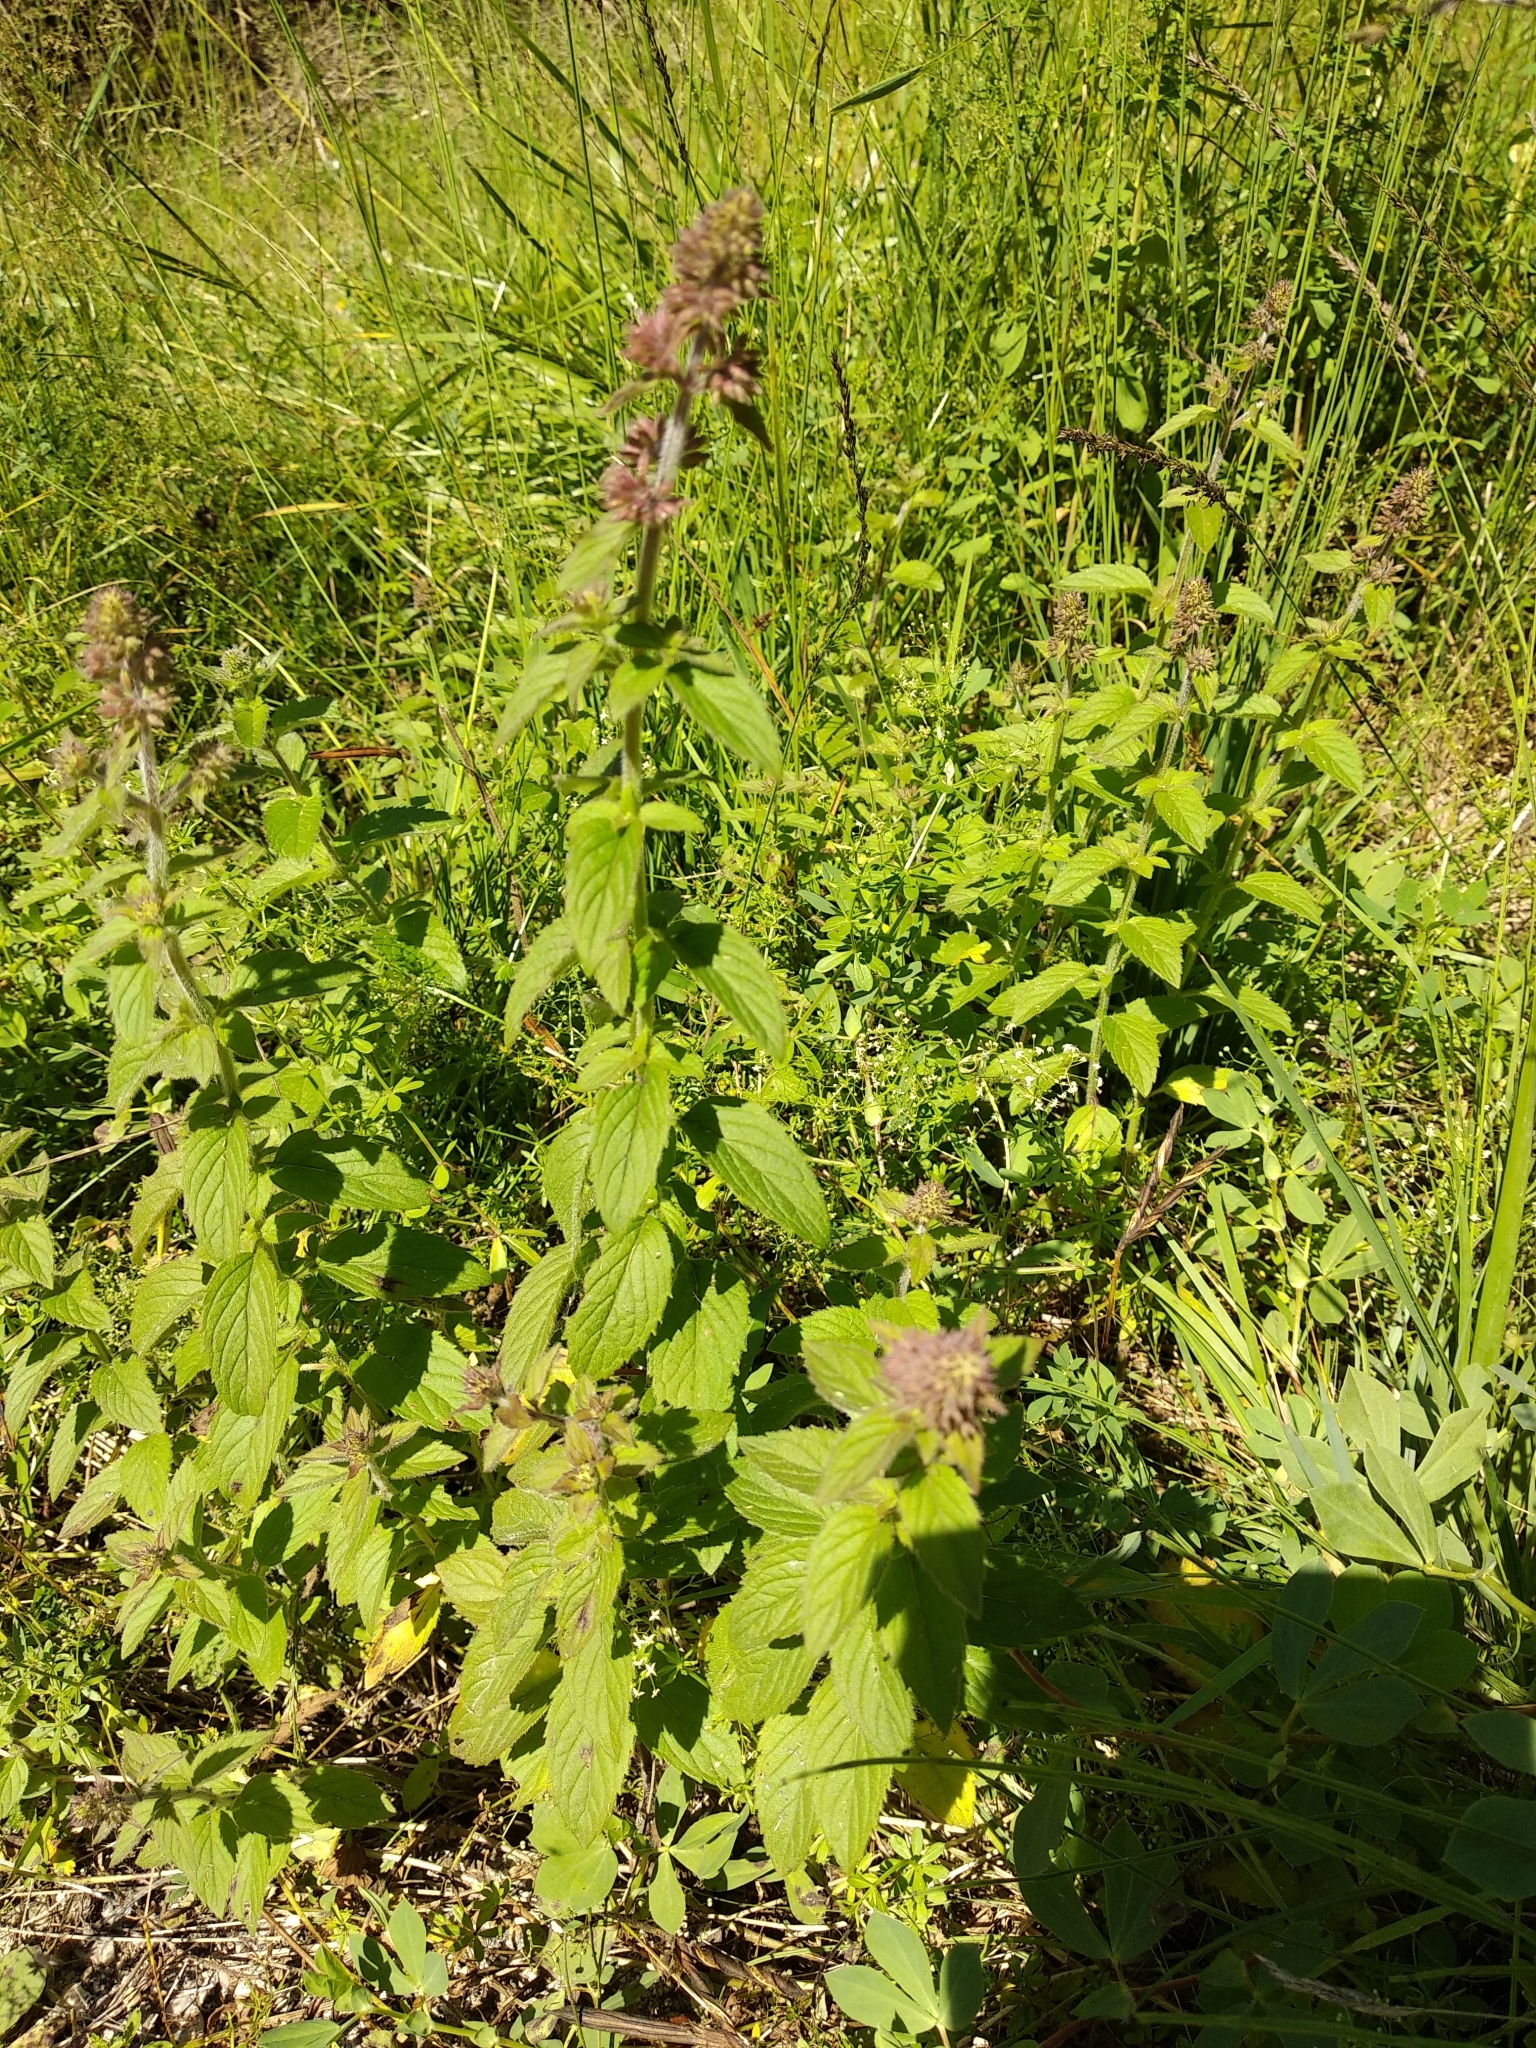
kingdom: Plantae
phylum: Tracheophyta
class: Magnoliopsida
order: Lamiales
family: Lamiaceae
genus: Mentha
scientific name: Mentha aquatica
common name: Water mint
